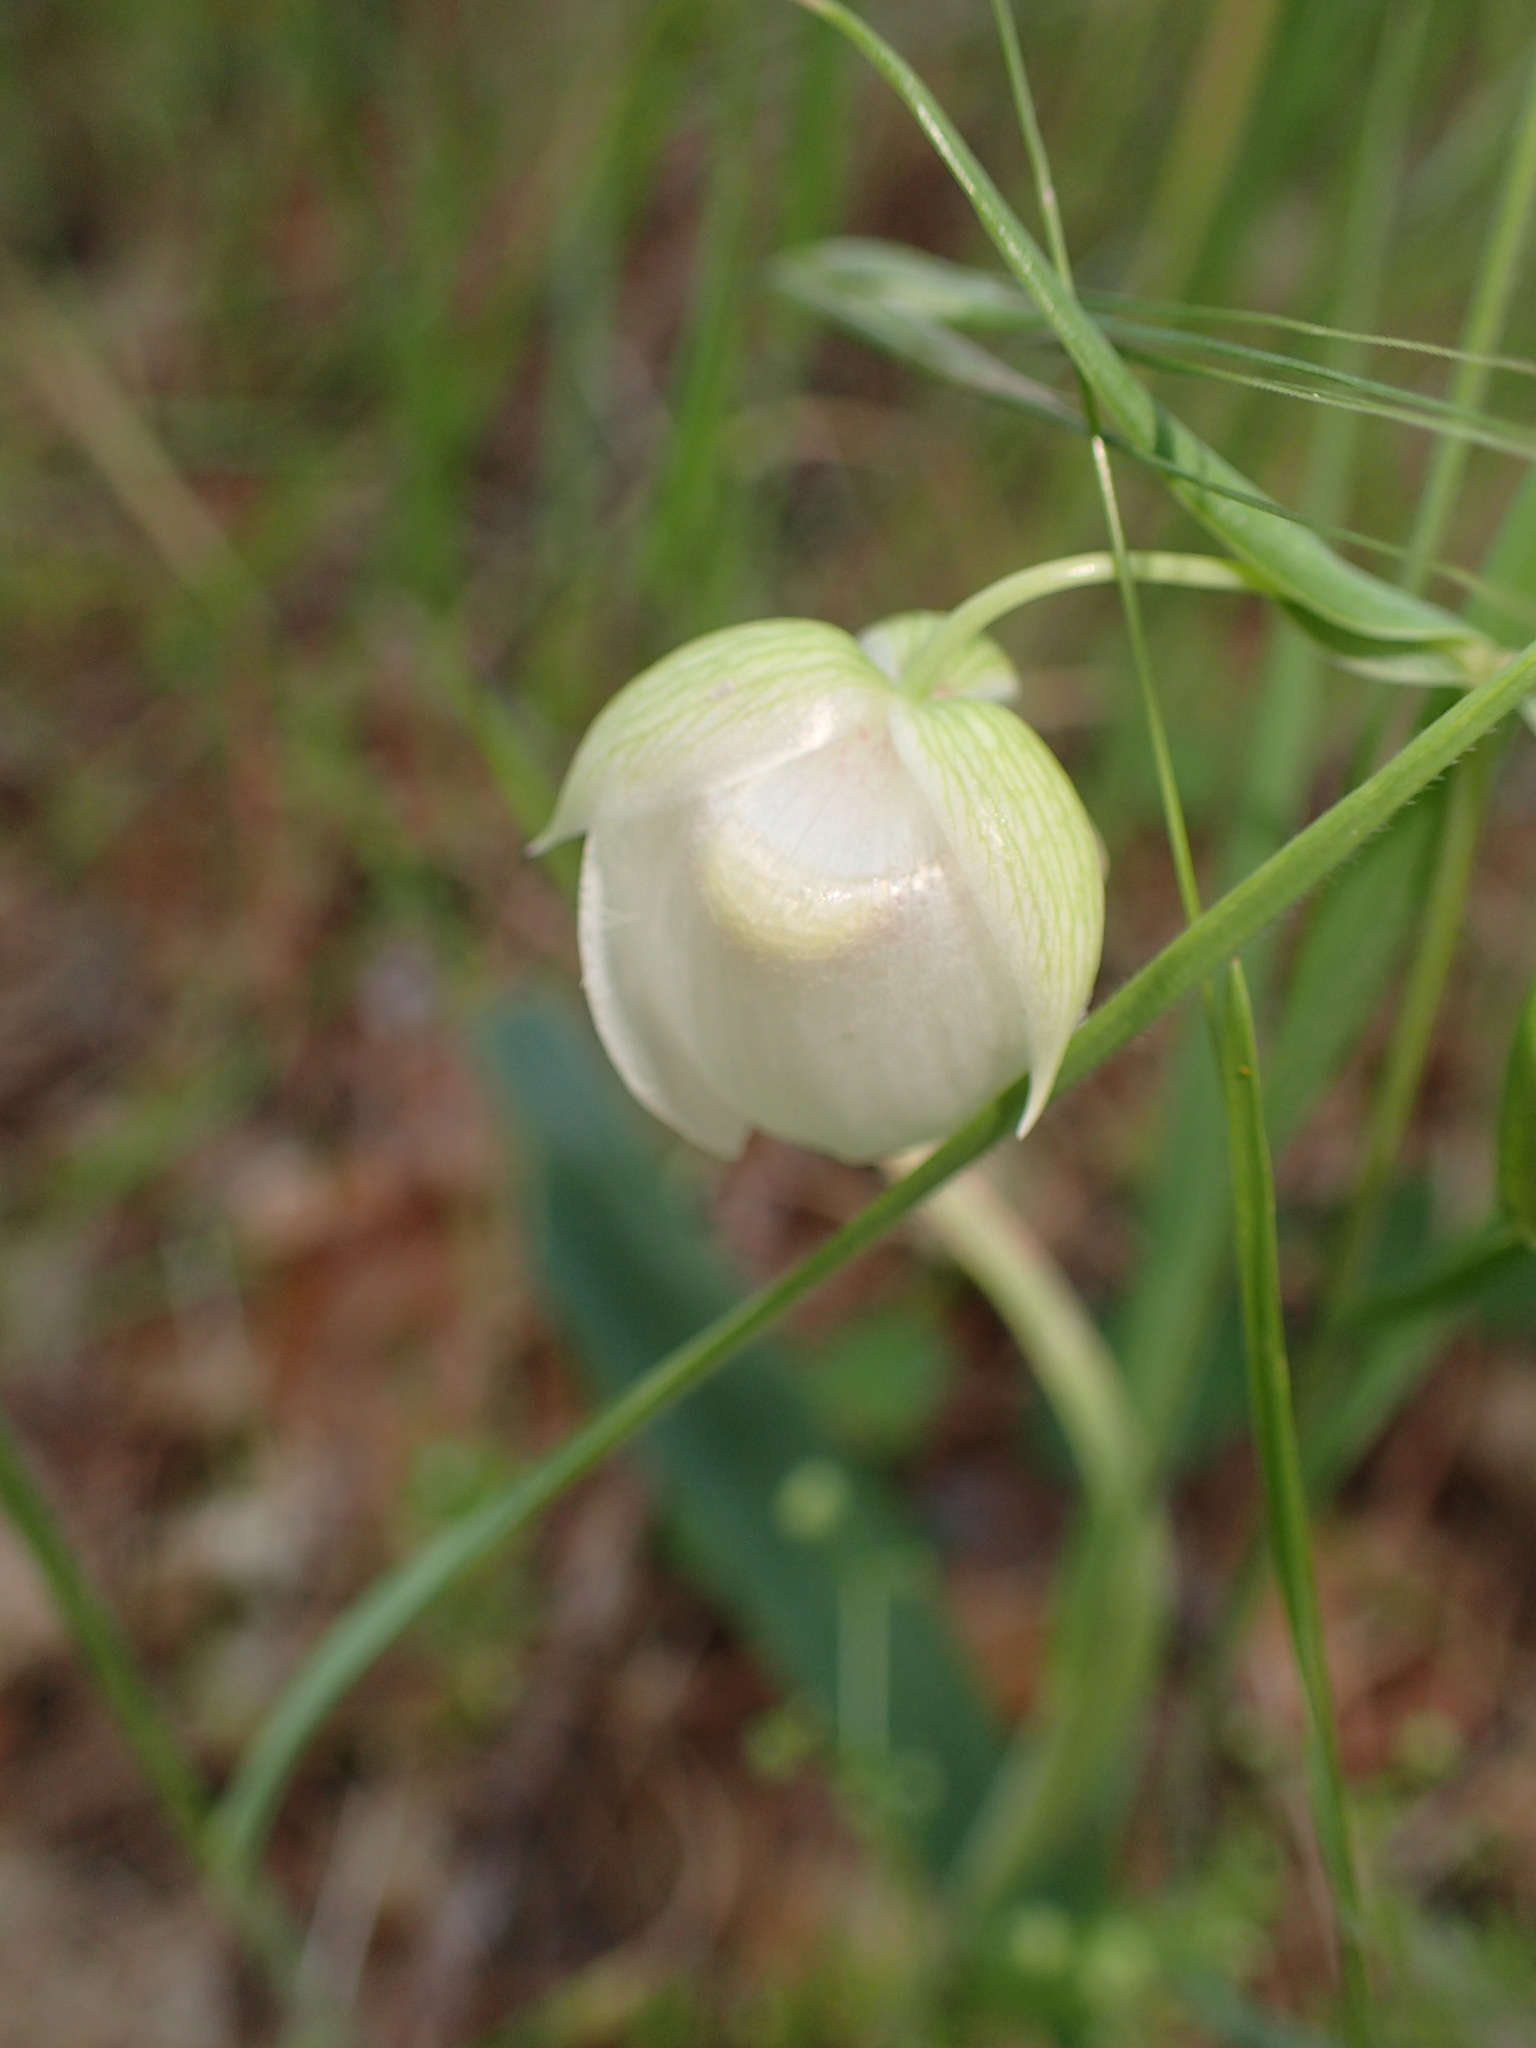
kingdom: Plantae
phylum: Tracheophyta
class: Liliopsida
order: Liliales
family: Liliaceae
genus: Calochortus
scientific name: Calochortus albus
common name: Fairy-lantern
